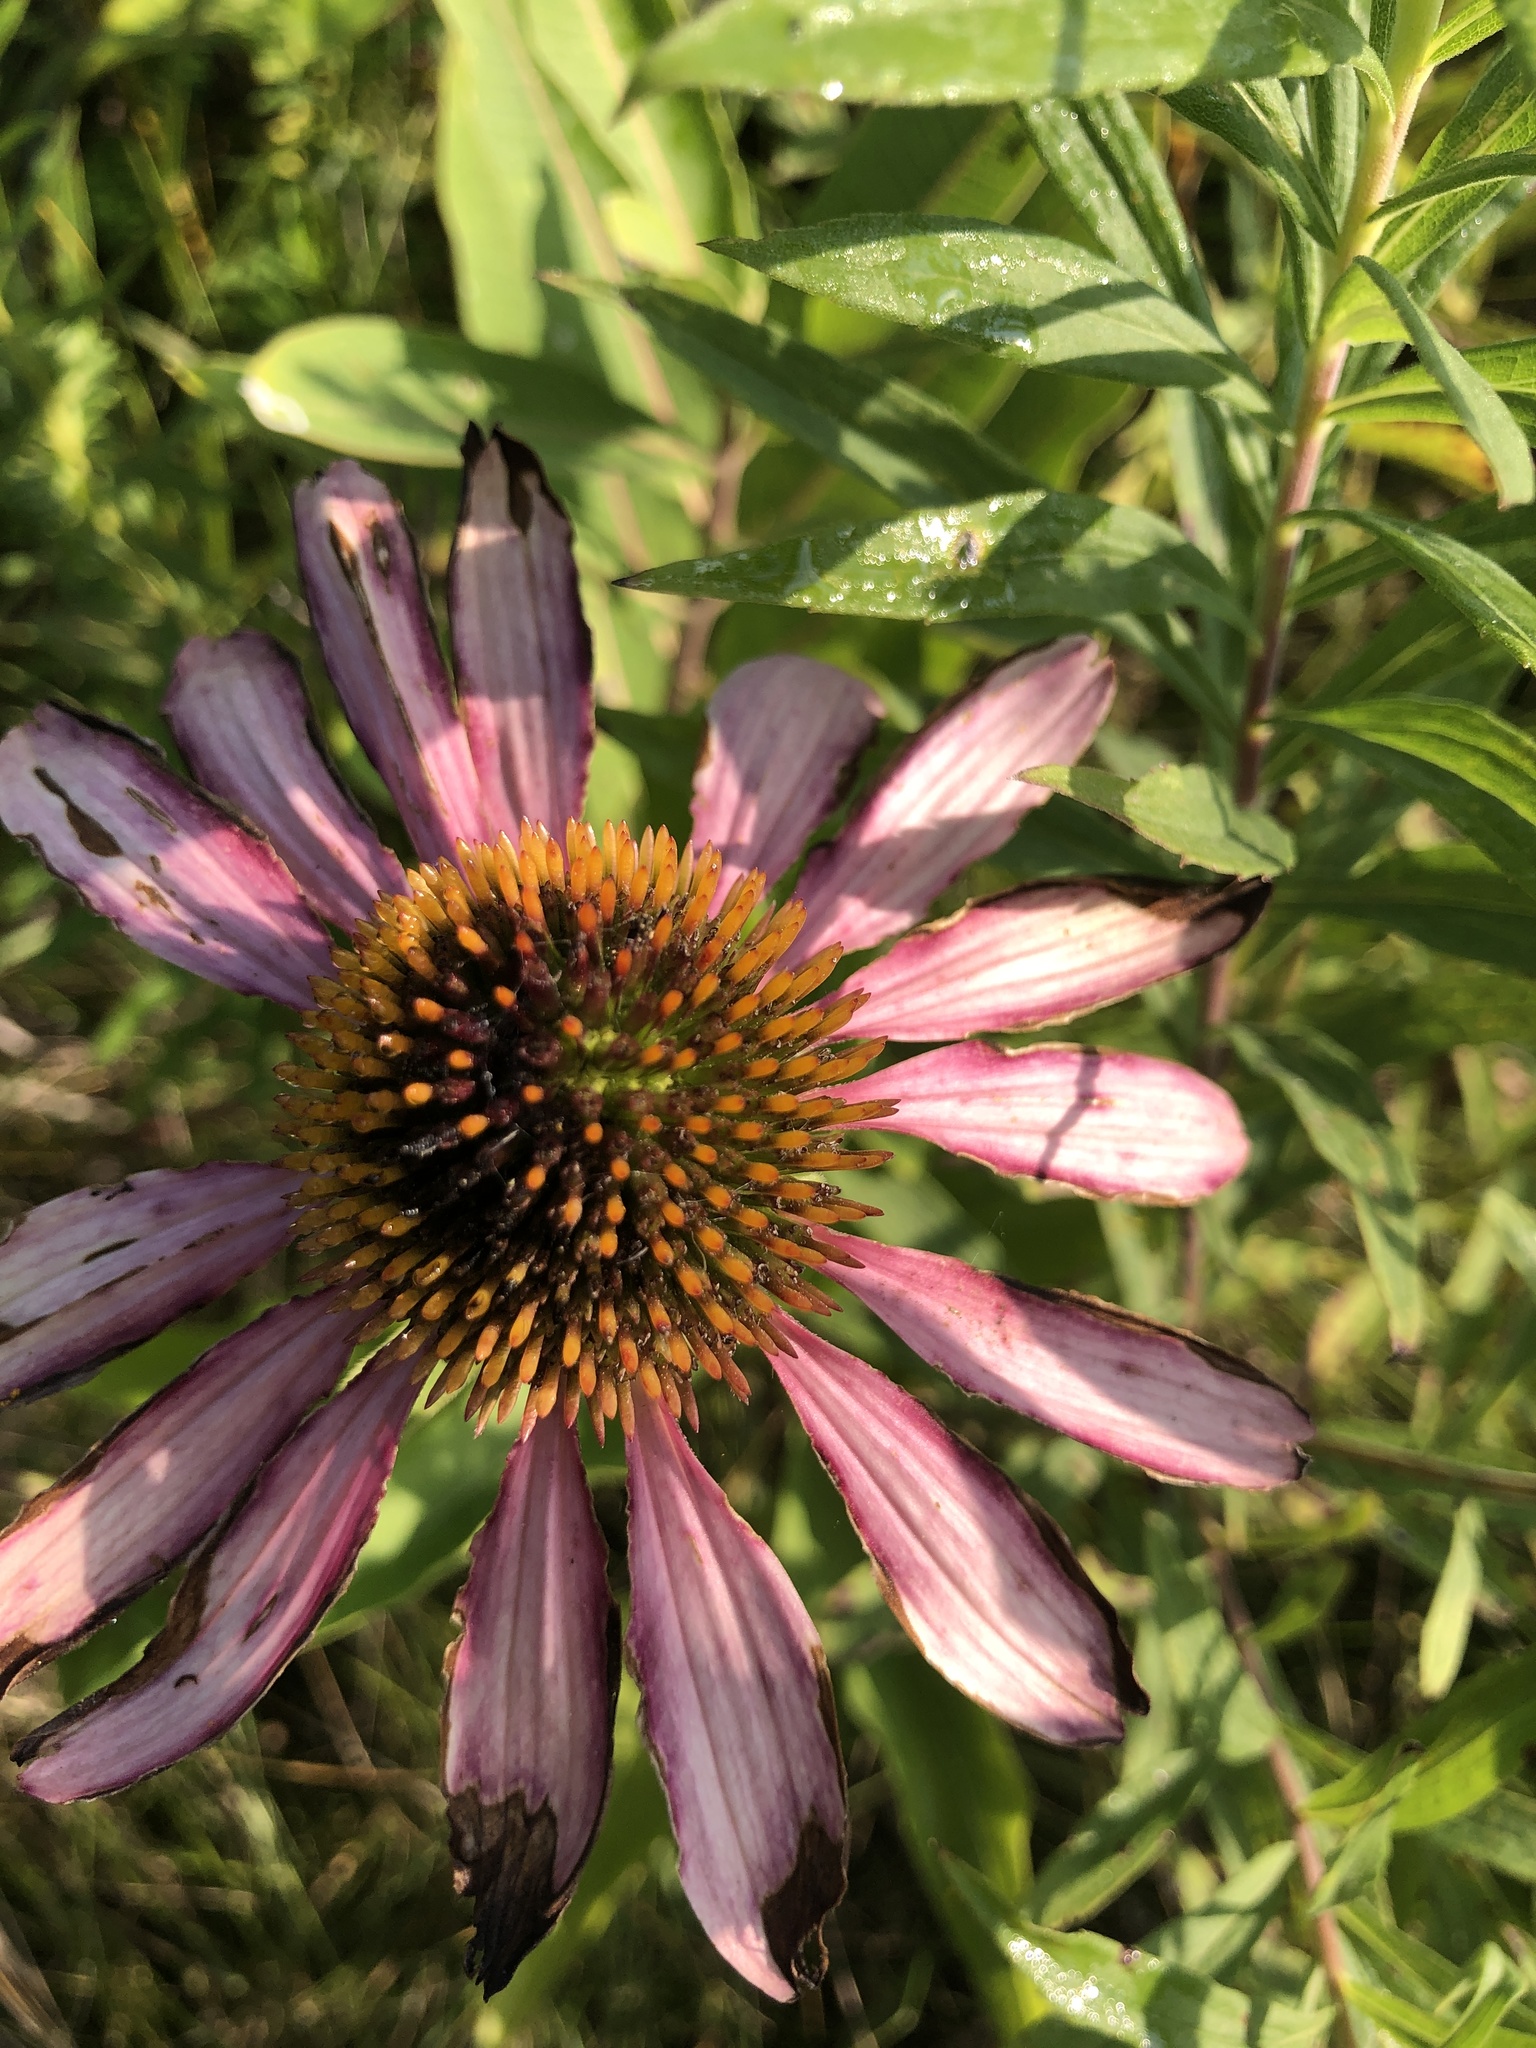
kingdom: Plantae
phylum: Tracheophyta
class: Magnoliopsida
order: Asterales
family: Asteraceae
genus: Echinacea
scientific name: Echinacea purpurea
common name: Broad-leaved purple coneflower
